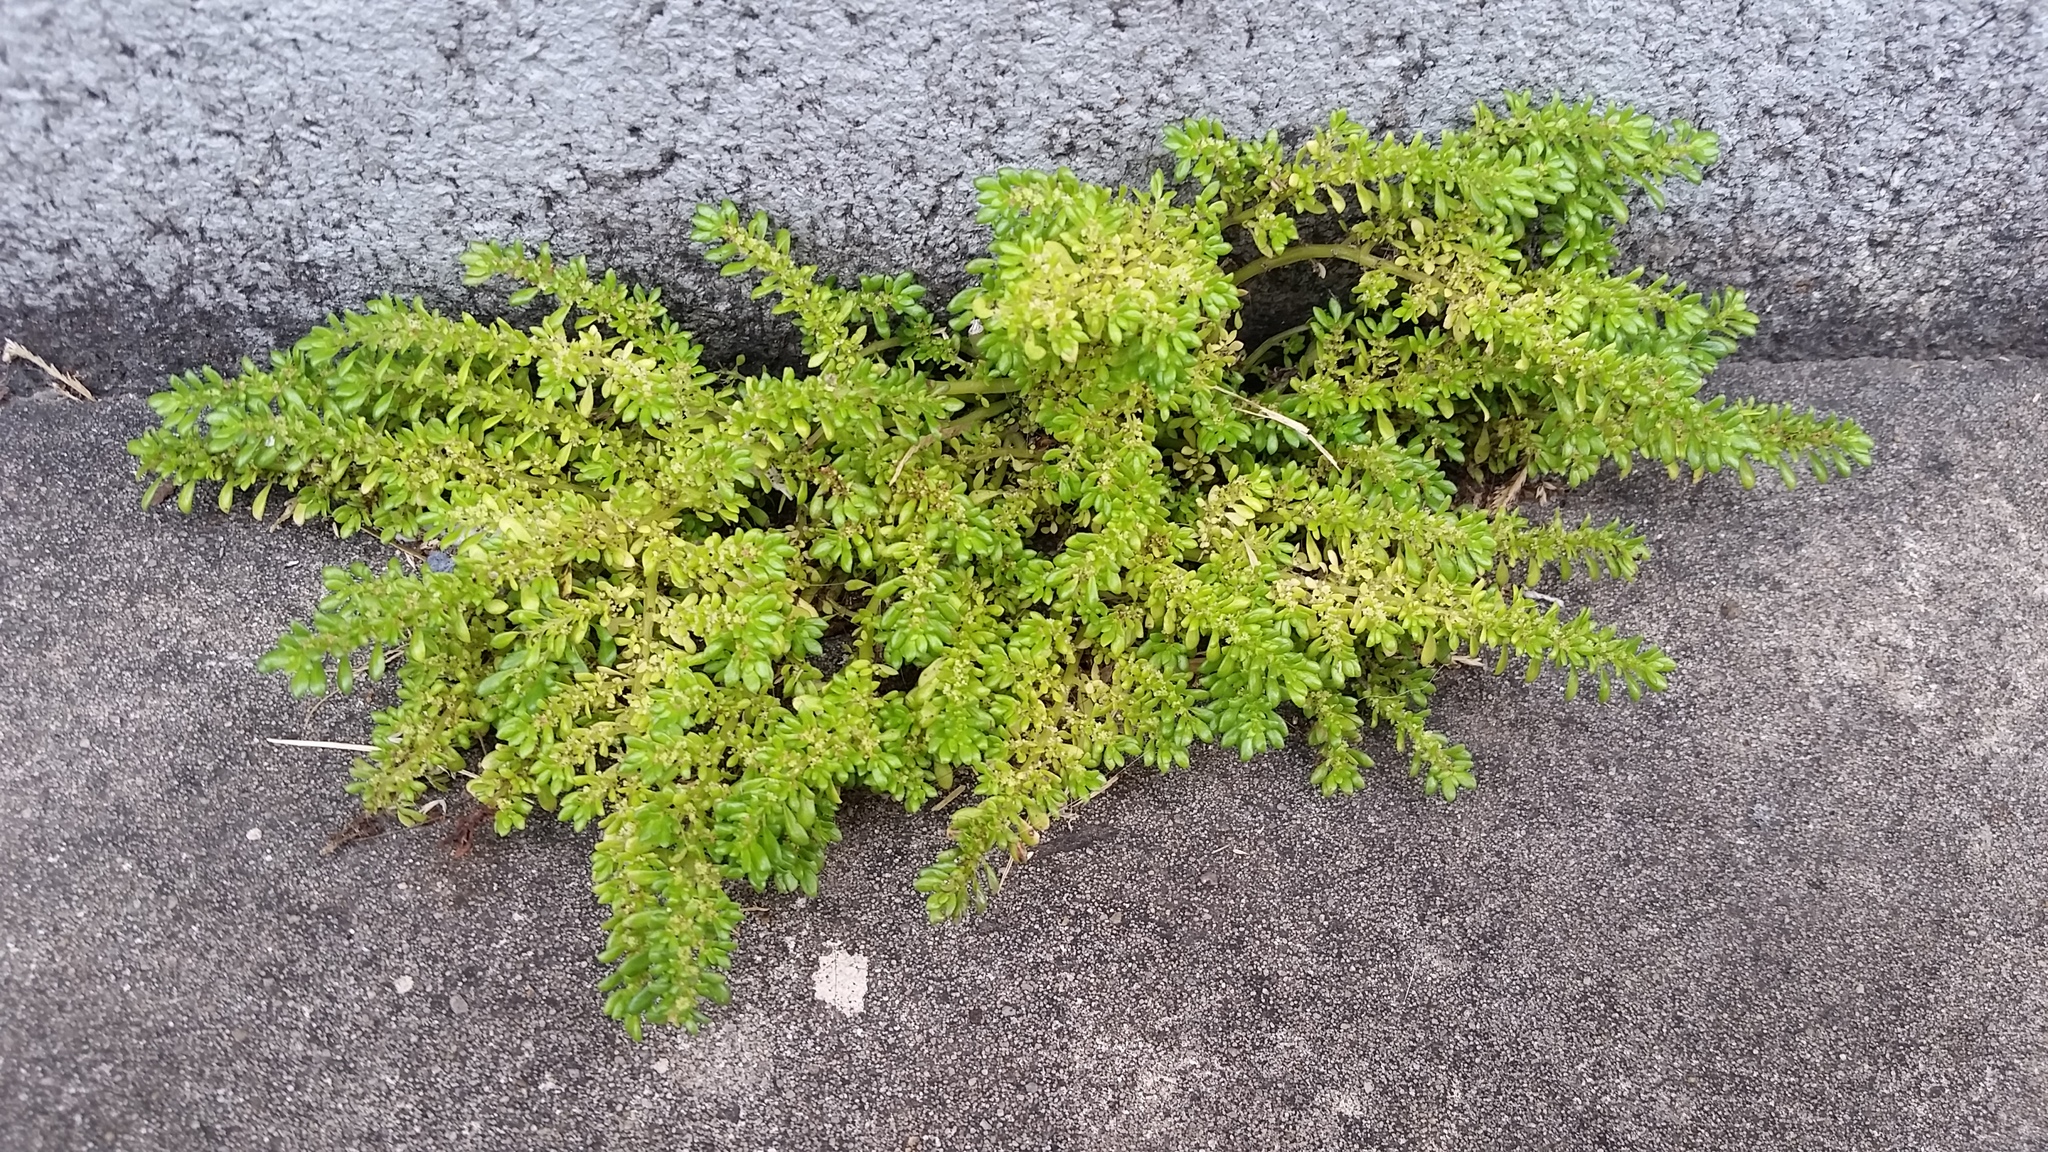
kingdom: Plantae
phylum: Tracheophyta
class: Magnoliopsida
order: Rosales
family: Urticaceae
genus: Pilea
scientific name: Pilea microphylla
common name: Artillery-plant
